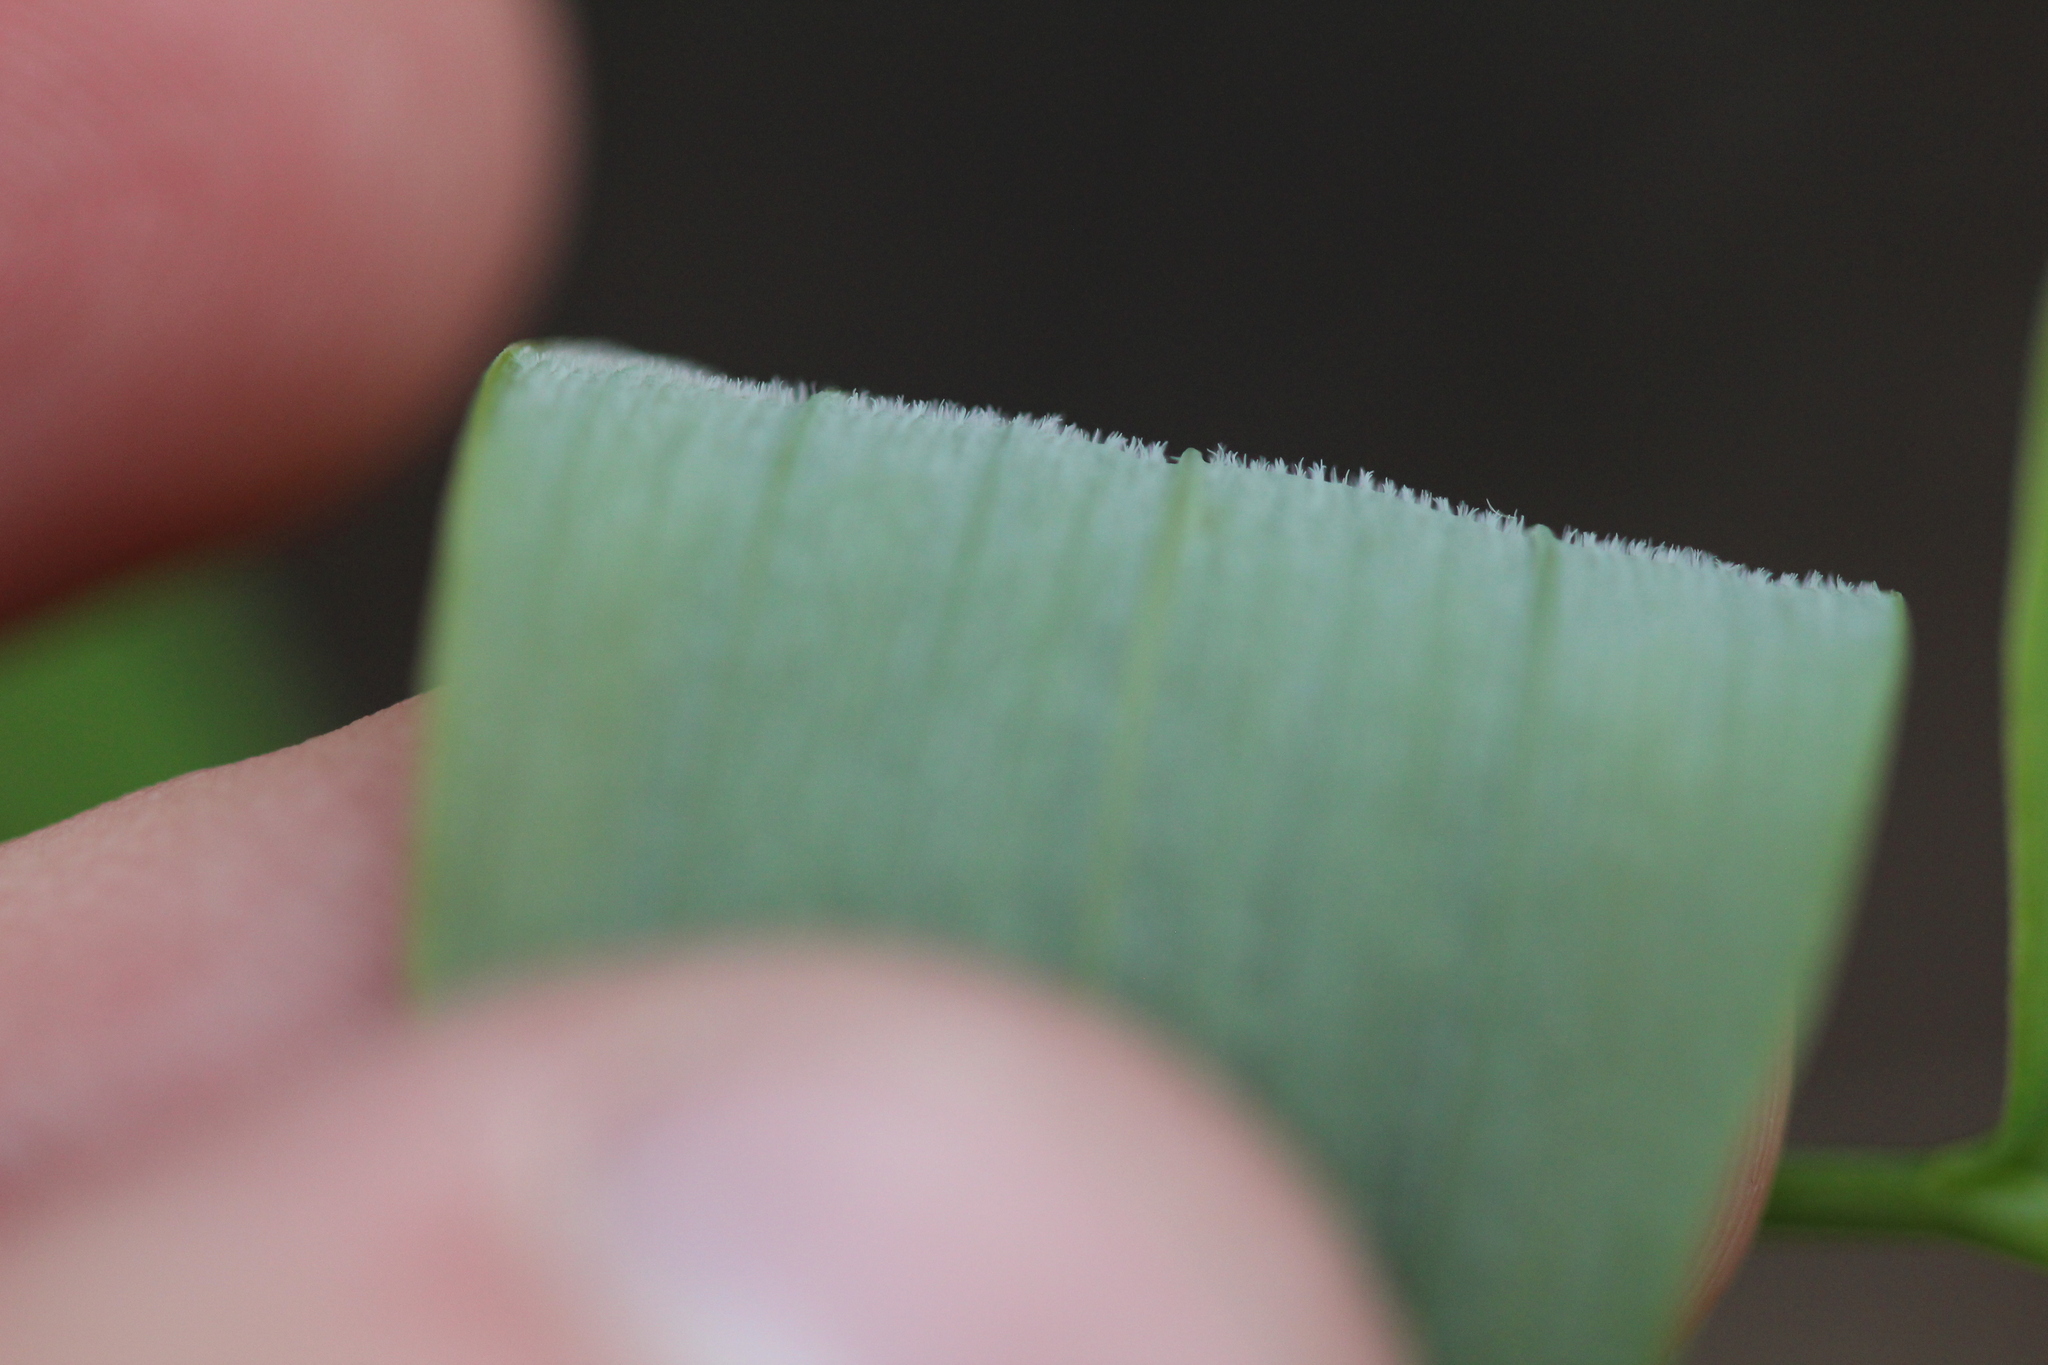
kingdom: Plantae
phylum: Tracheophyta
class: Liliopsida
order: Asparagales
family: Asparagaceae
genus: Polygonatum
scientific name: Polygonatum pubescens
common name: Downy solomon's seal
